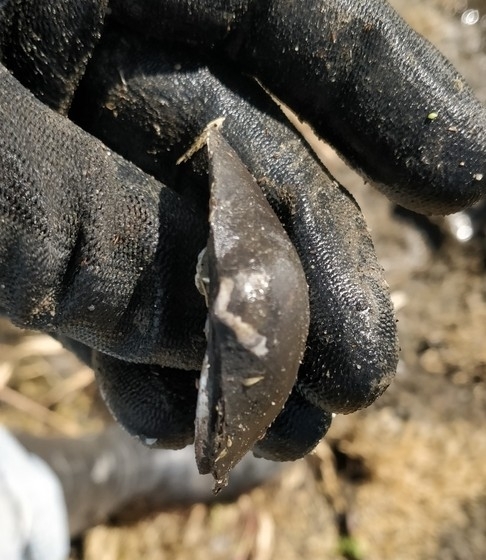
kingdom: Animalia
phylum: Mollusca
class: Bivalvia
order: Unionida
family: Unionidae
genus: Cyclonaias
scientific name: Cyclonaias pustulosa
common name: Pimpleback
